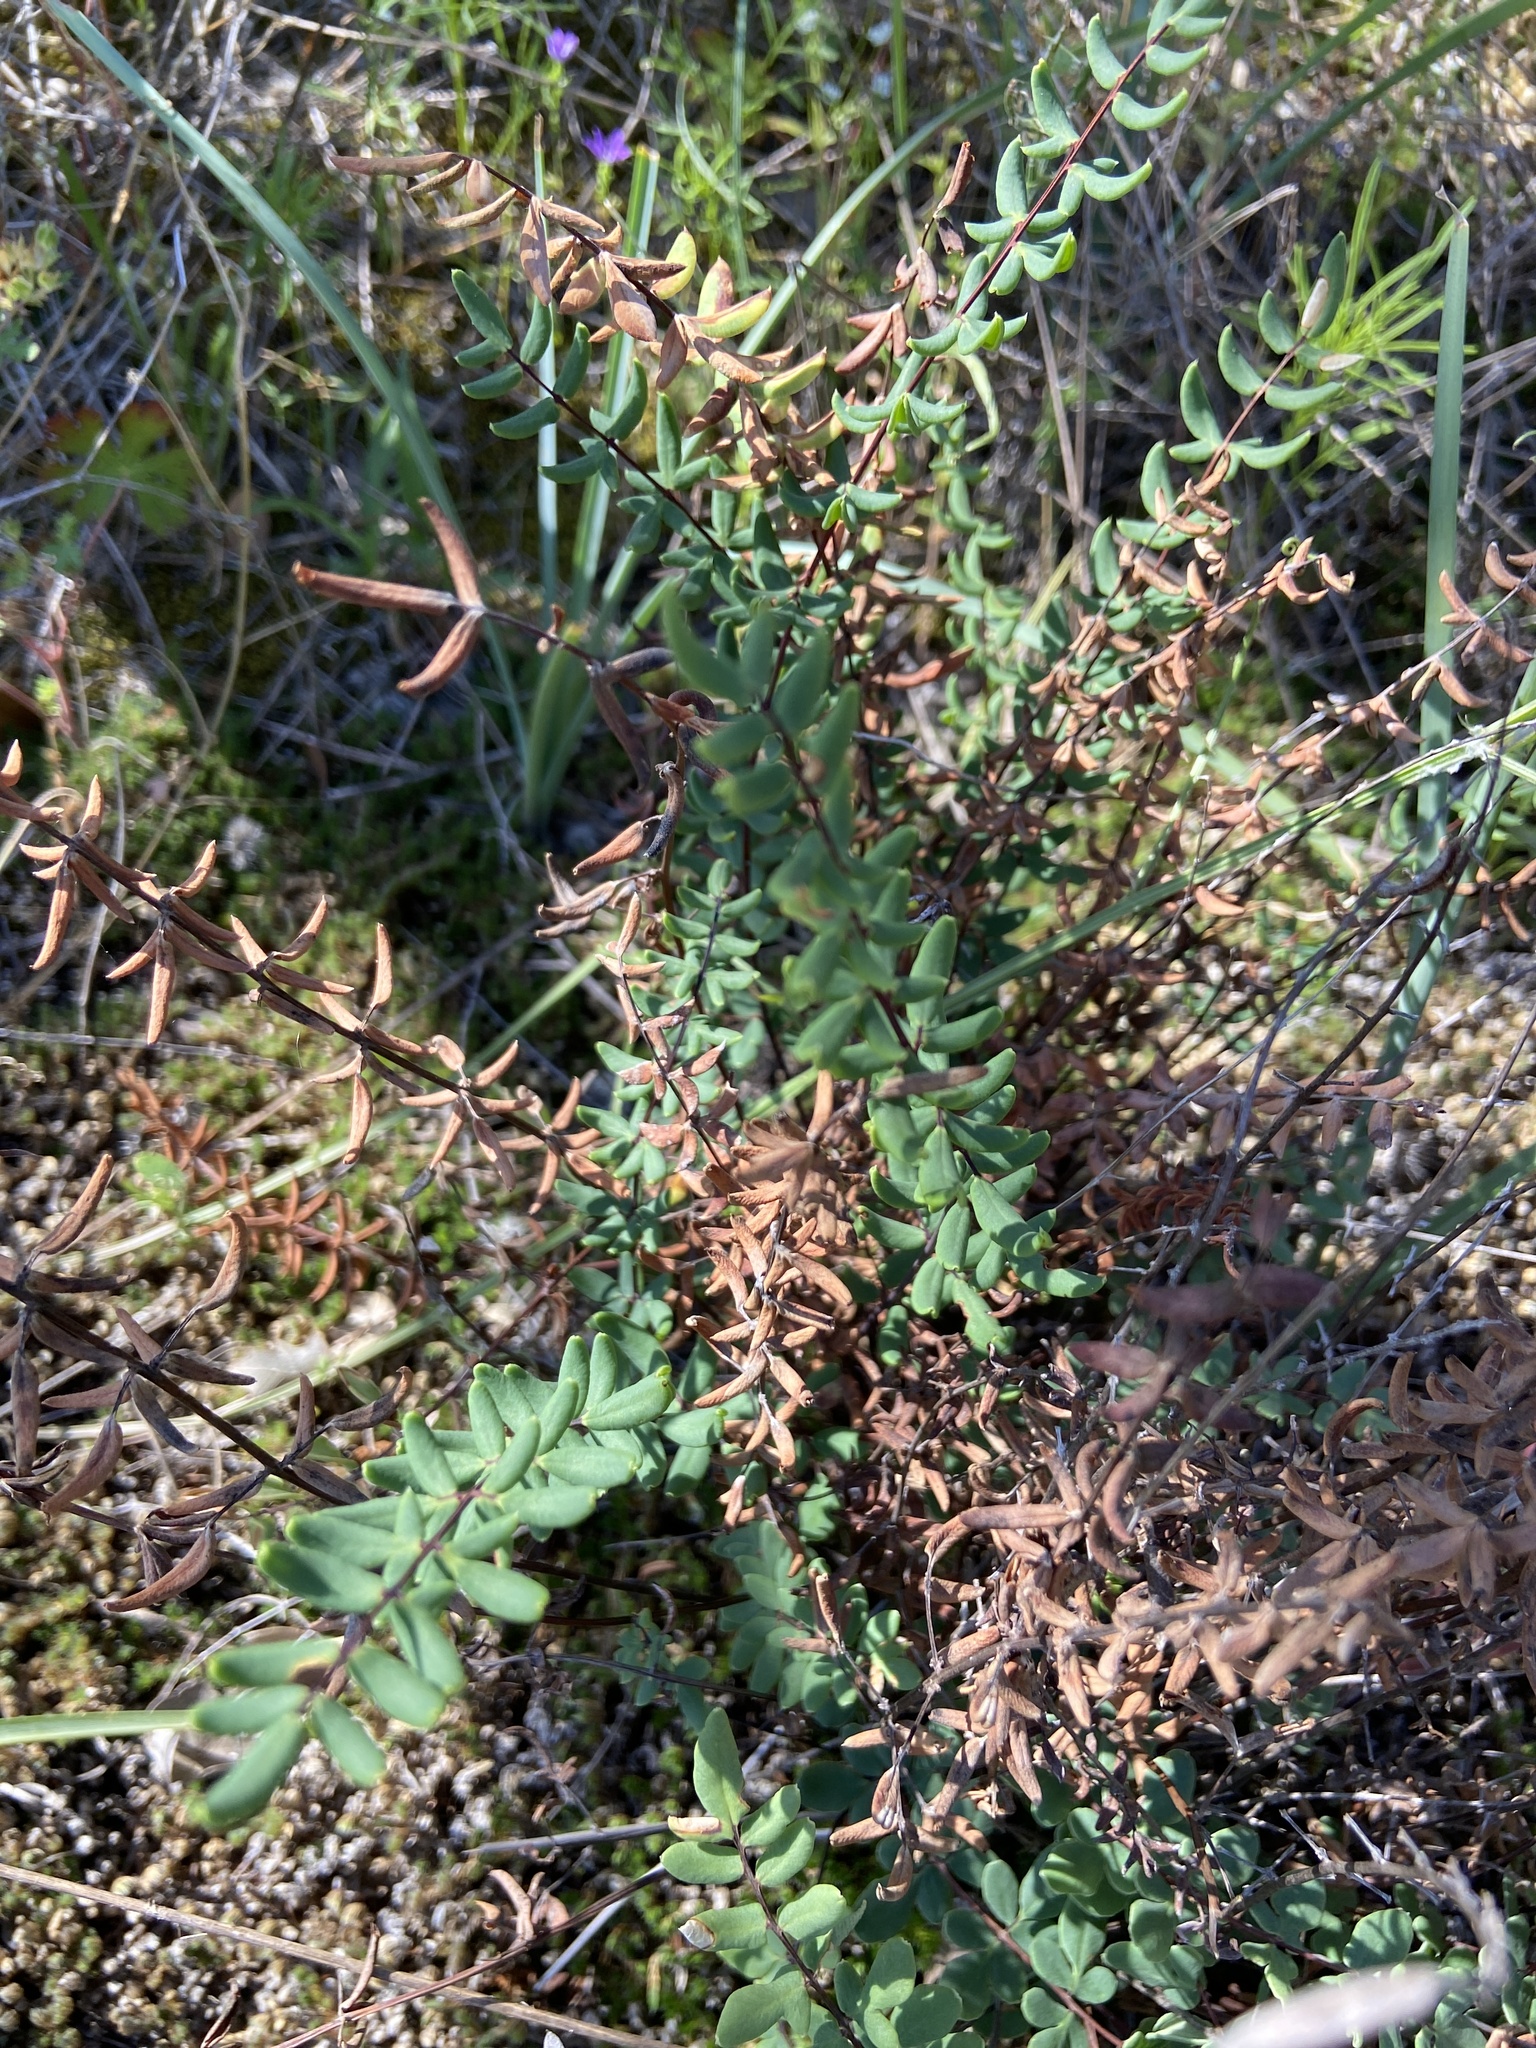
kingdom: Plantae
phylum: Tracheophyta
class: Polypodiopsida
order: Polypodiales
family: Pteridaceae
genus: Pellaea
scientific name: Pellaea wrightiana
